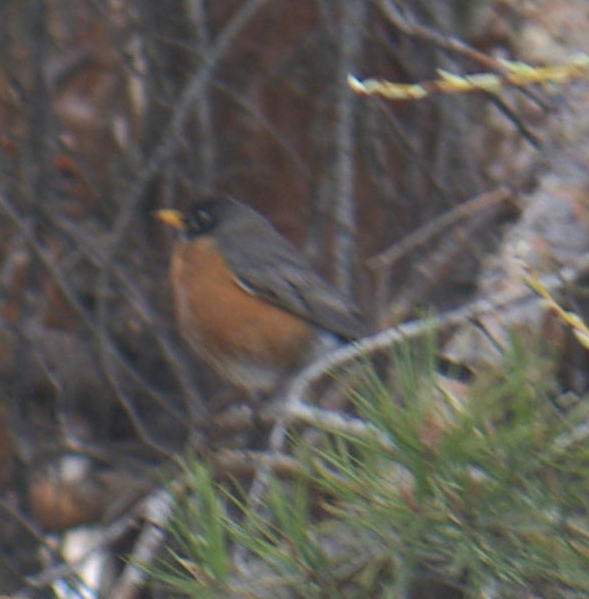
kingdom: Animalia
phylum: Chordata
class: Aves
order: Passeriformes
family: Turdidae
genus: Turdus
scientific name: Turdus migratorius
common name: American robin
